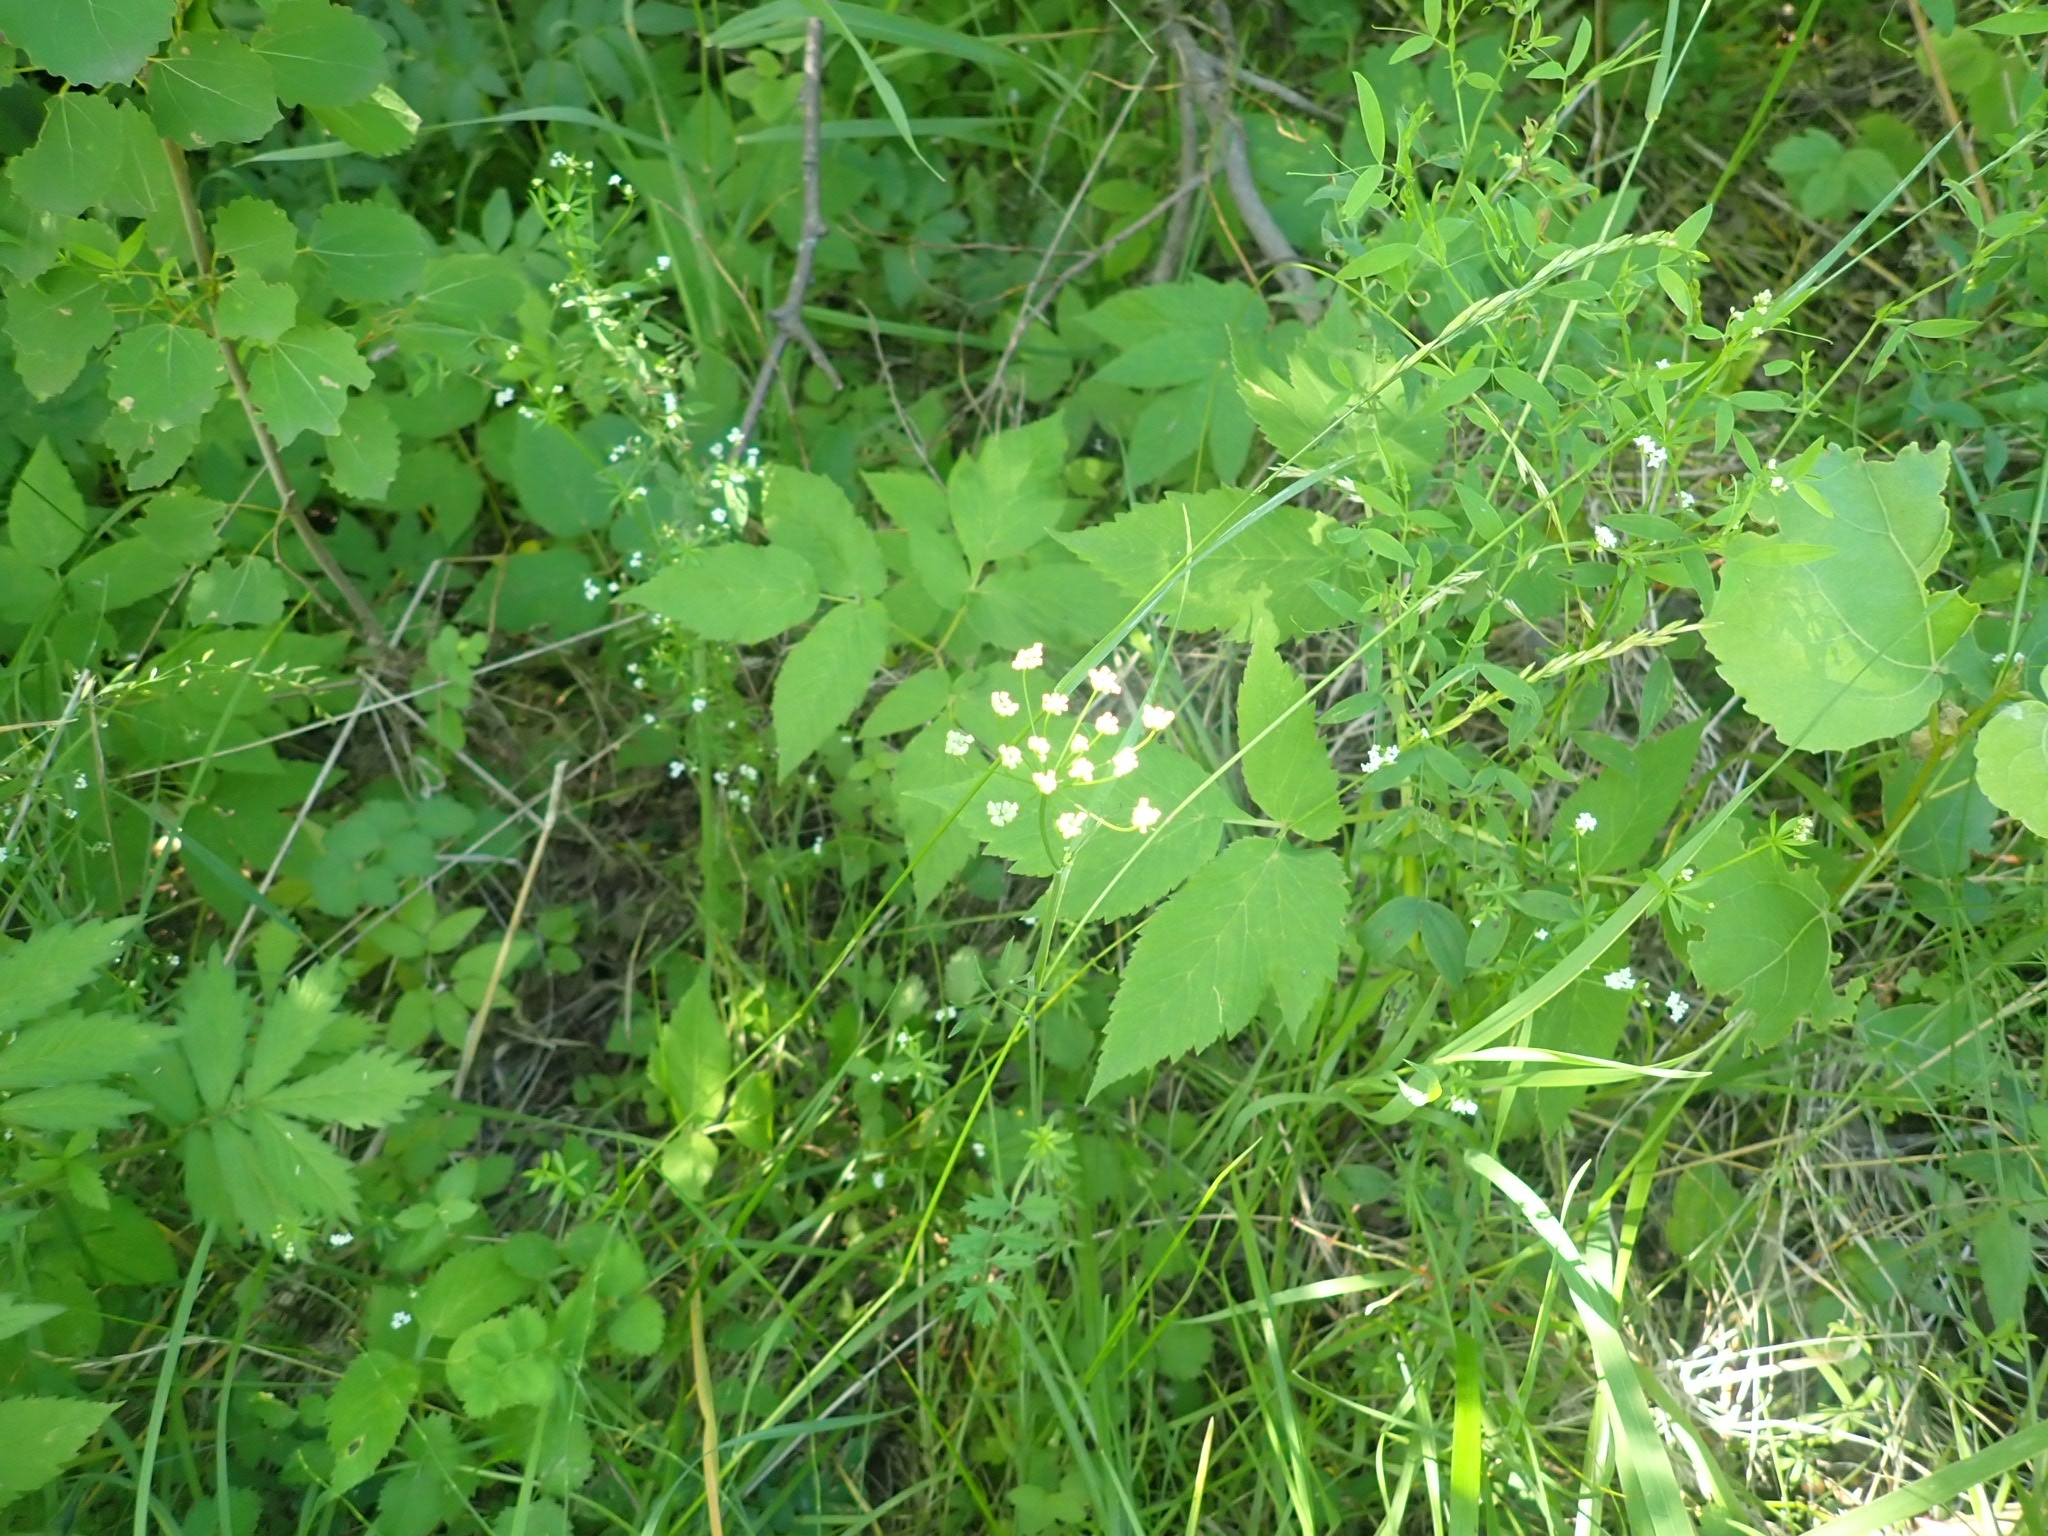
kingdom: Plantae
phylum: Tracheophyta
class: Magnoliopsida
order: Gentianales
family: Rubiaceae
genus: Galium
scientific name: Galium uliginosum
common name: Fen bedstraw
